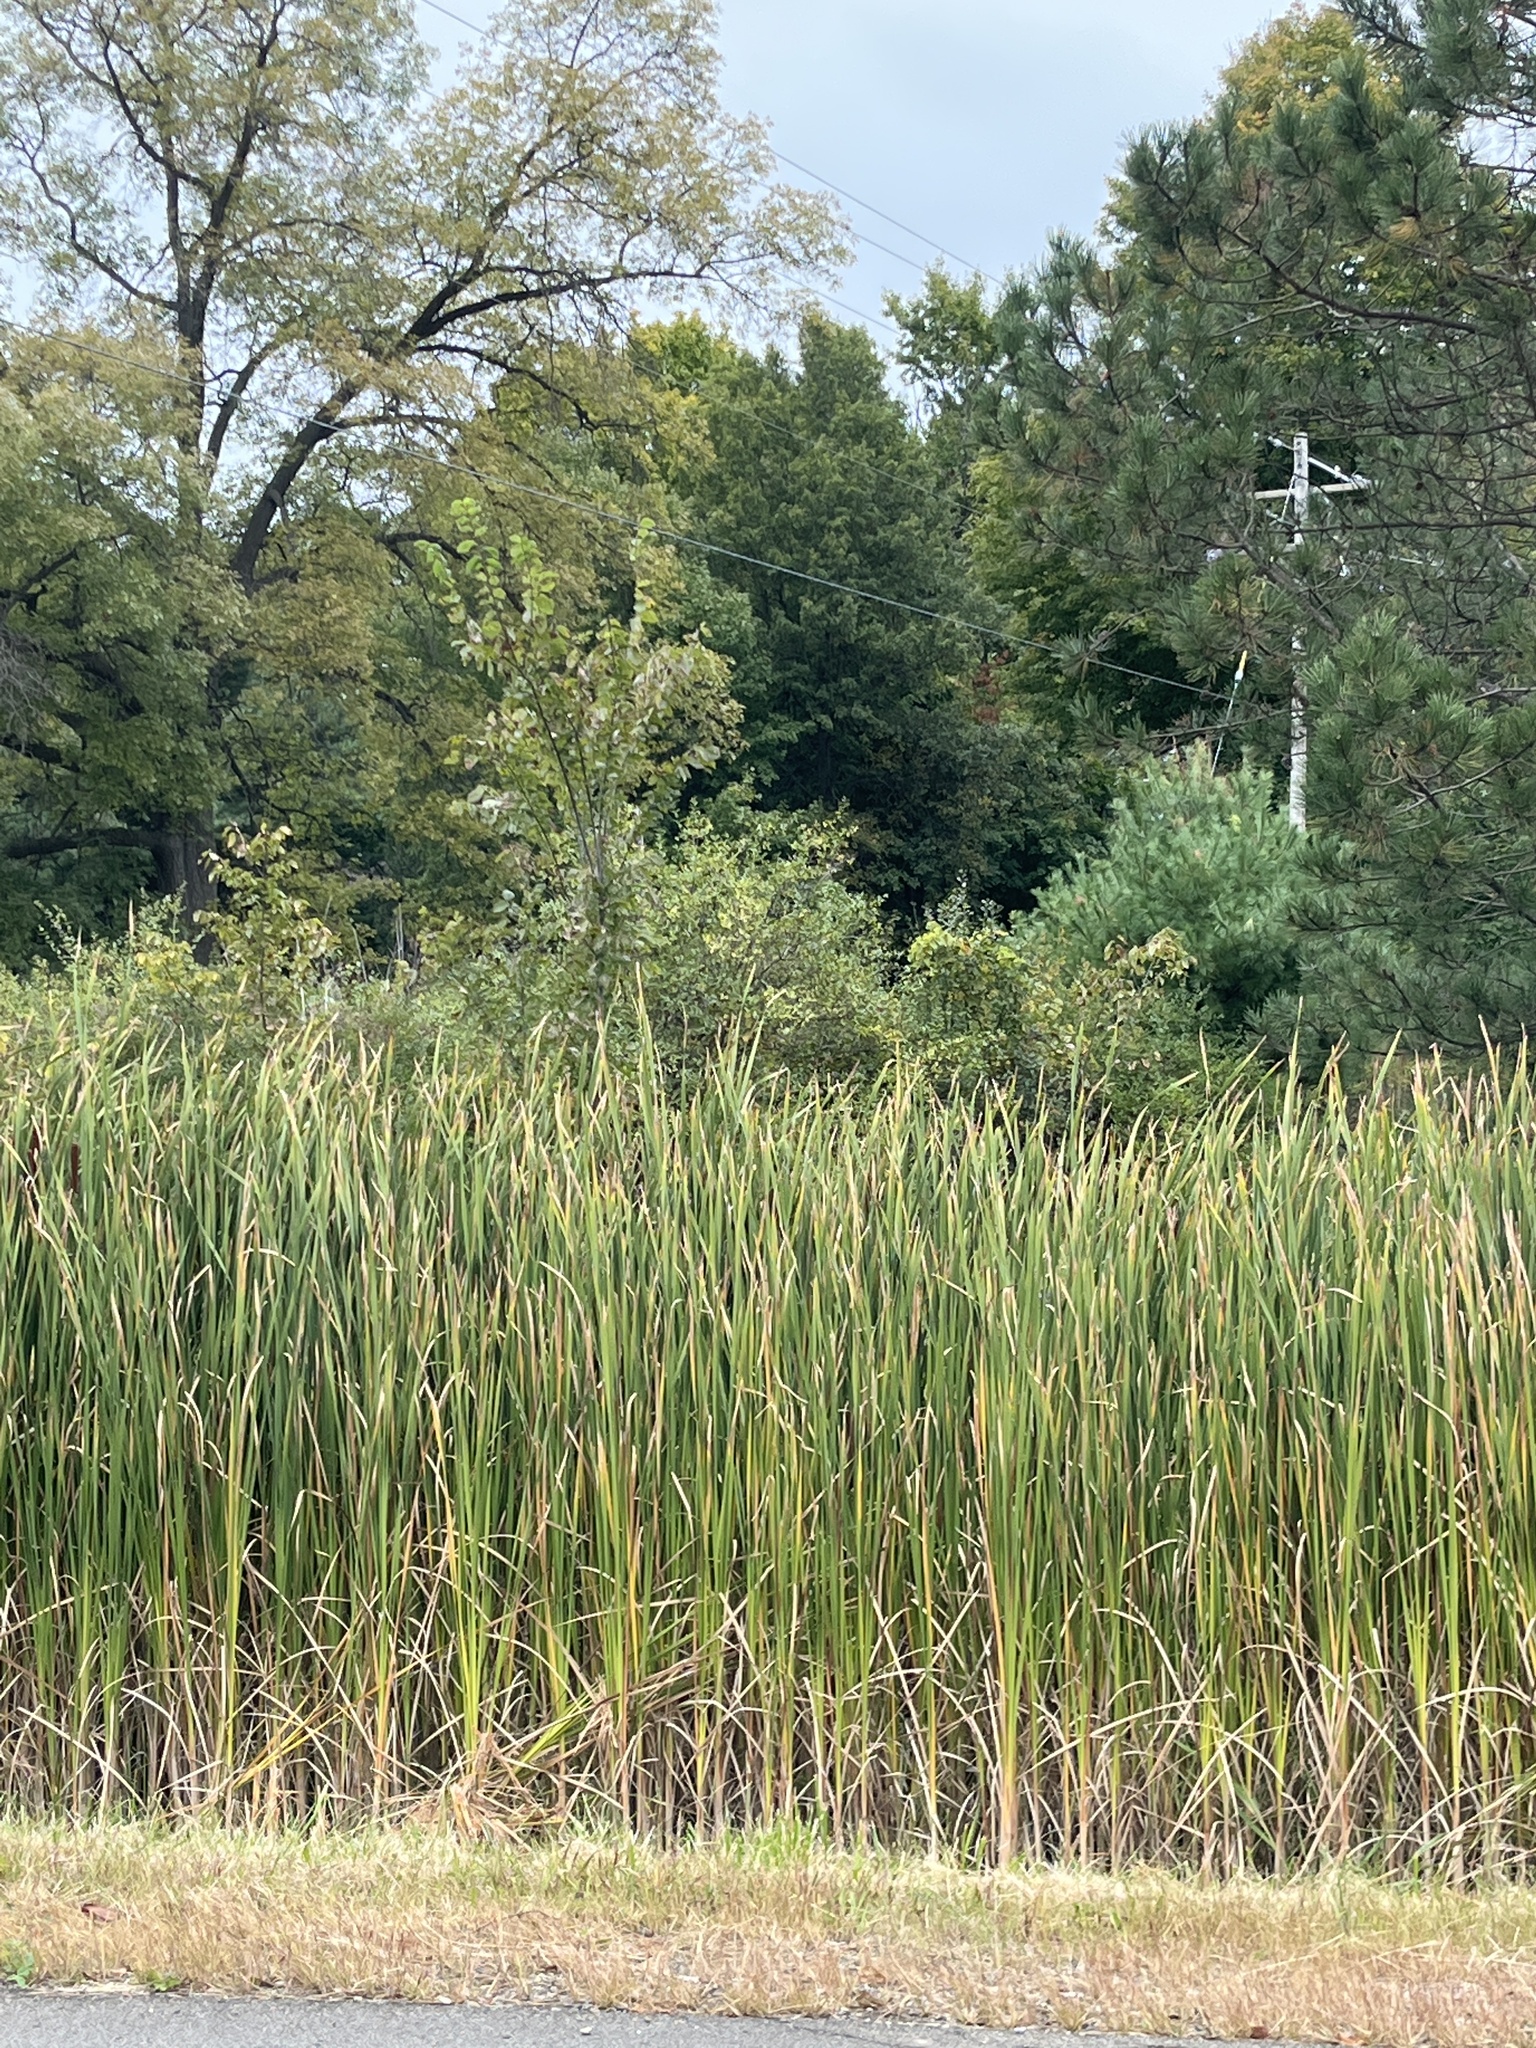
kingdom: Plantae
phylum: Tracheophyta
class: Liliopsida
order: Poales
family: Typhaceae
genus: Typha
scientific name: Typha
